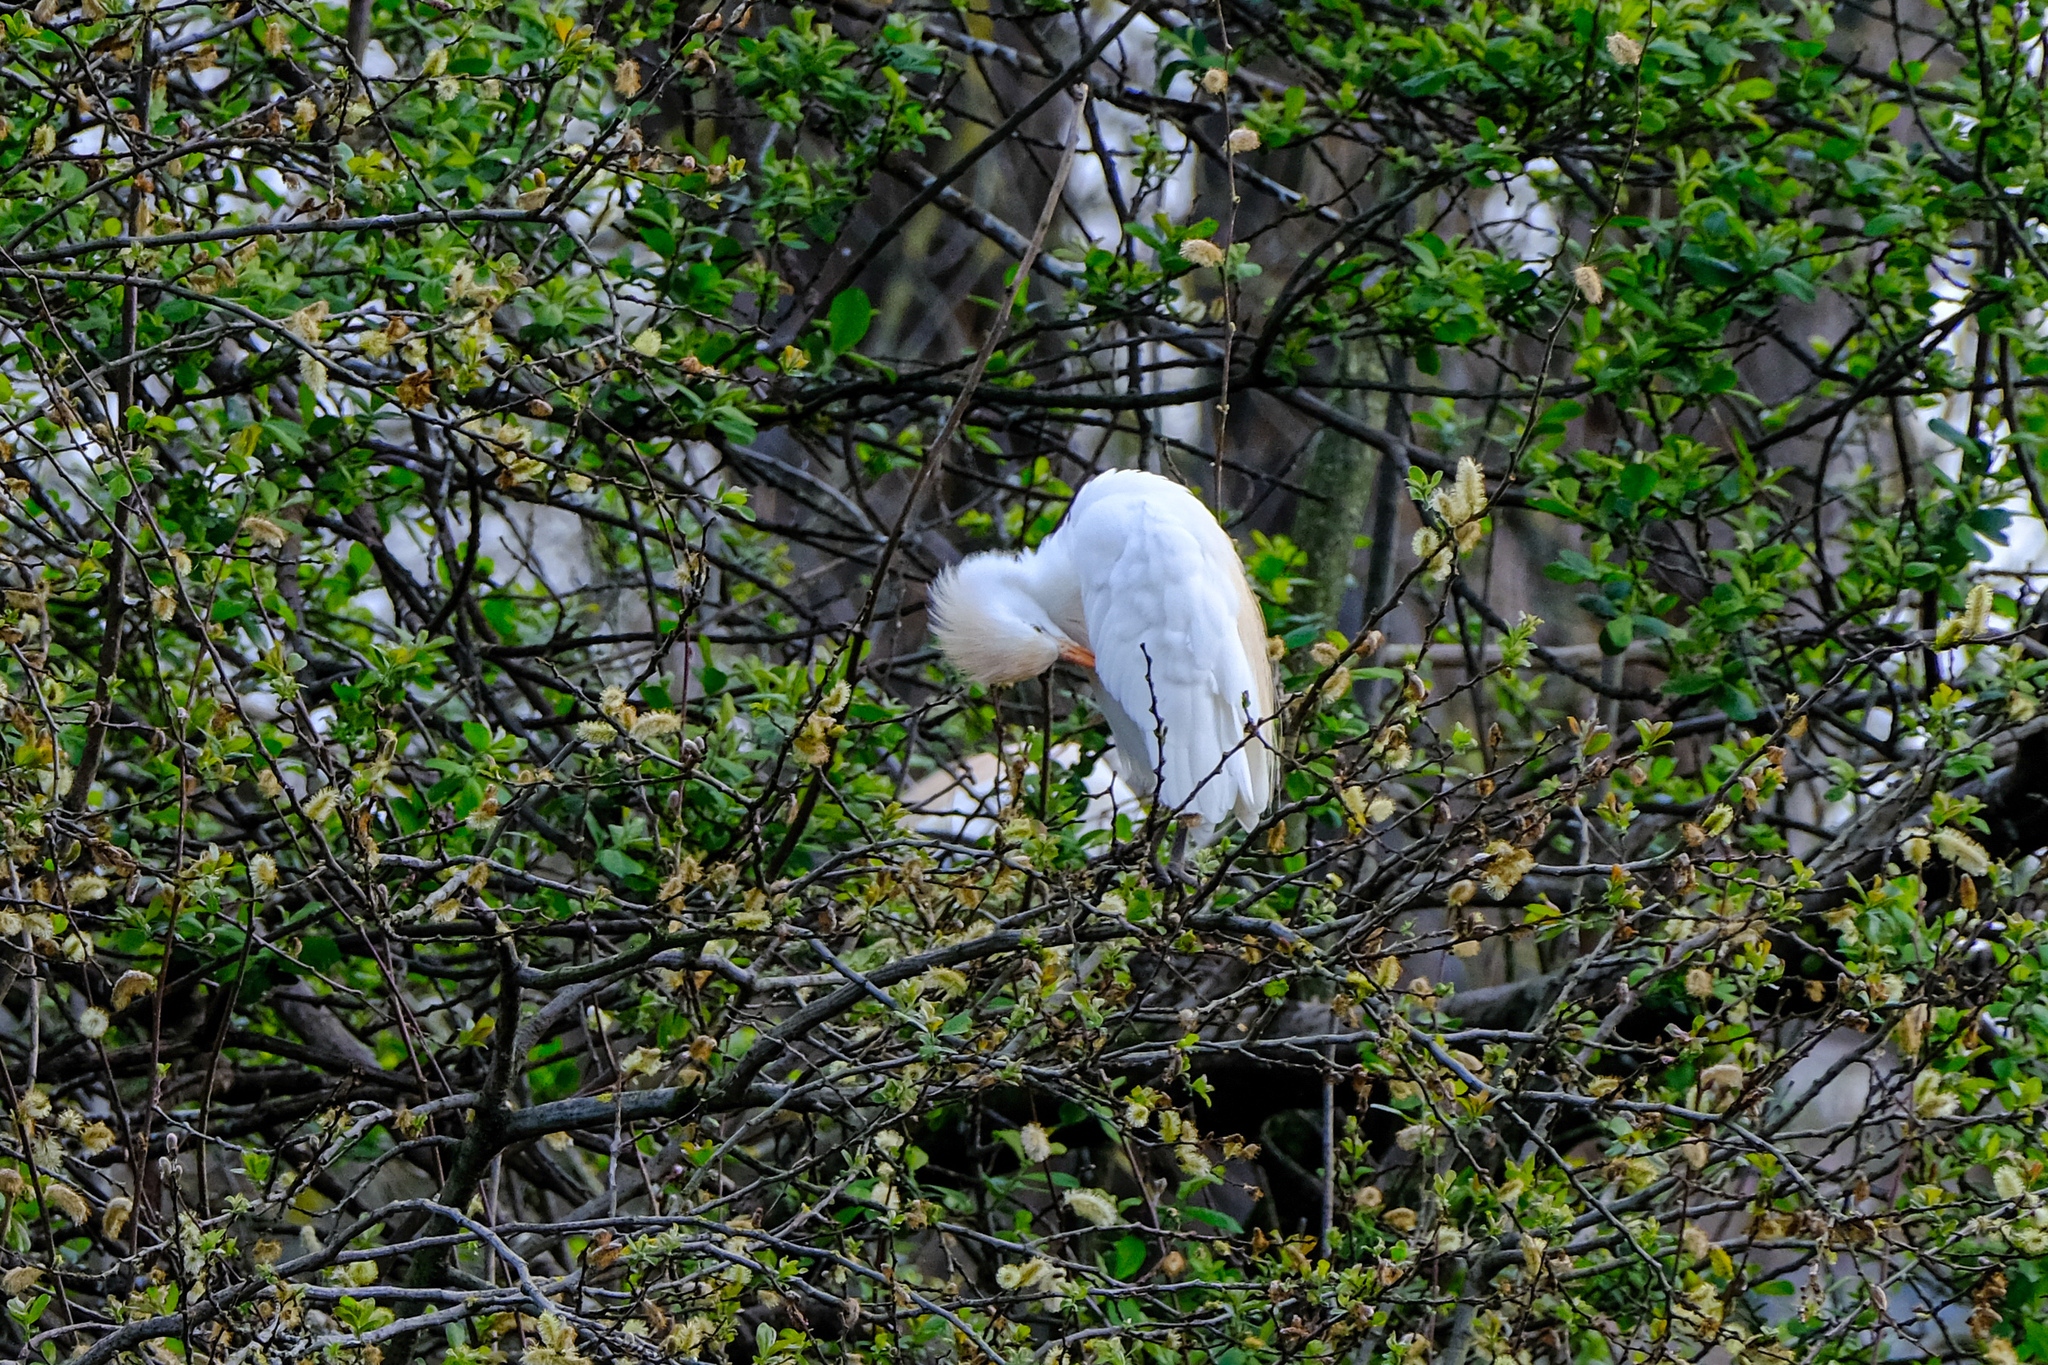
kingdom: Animalia
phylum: Chordata
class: Aves
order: Pelecaniformes
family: Ardeidae
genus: Bubulcus
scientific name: Bubulcus ibis
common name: Cattle egret
